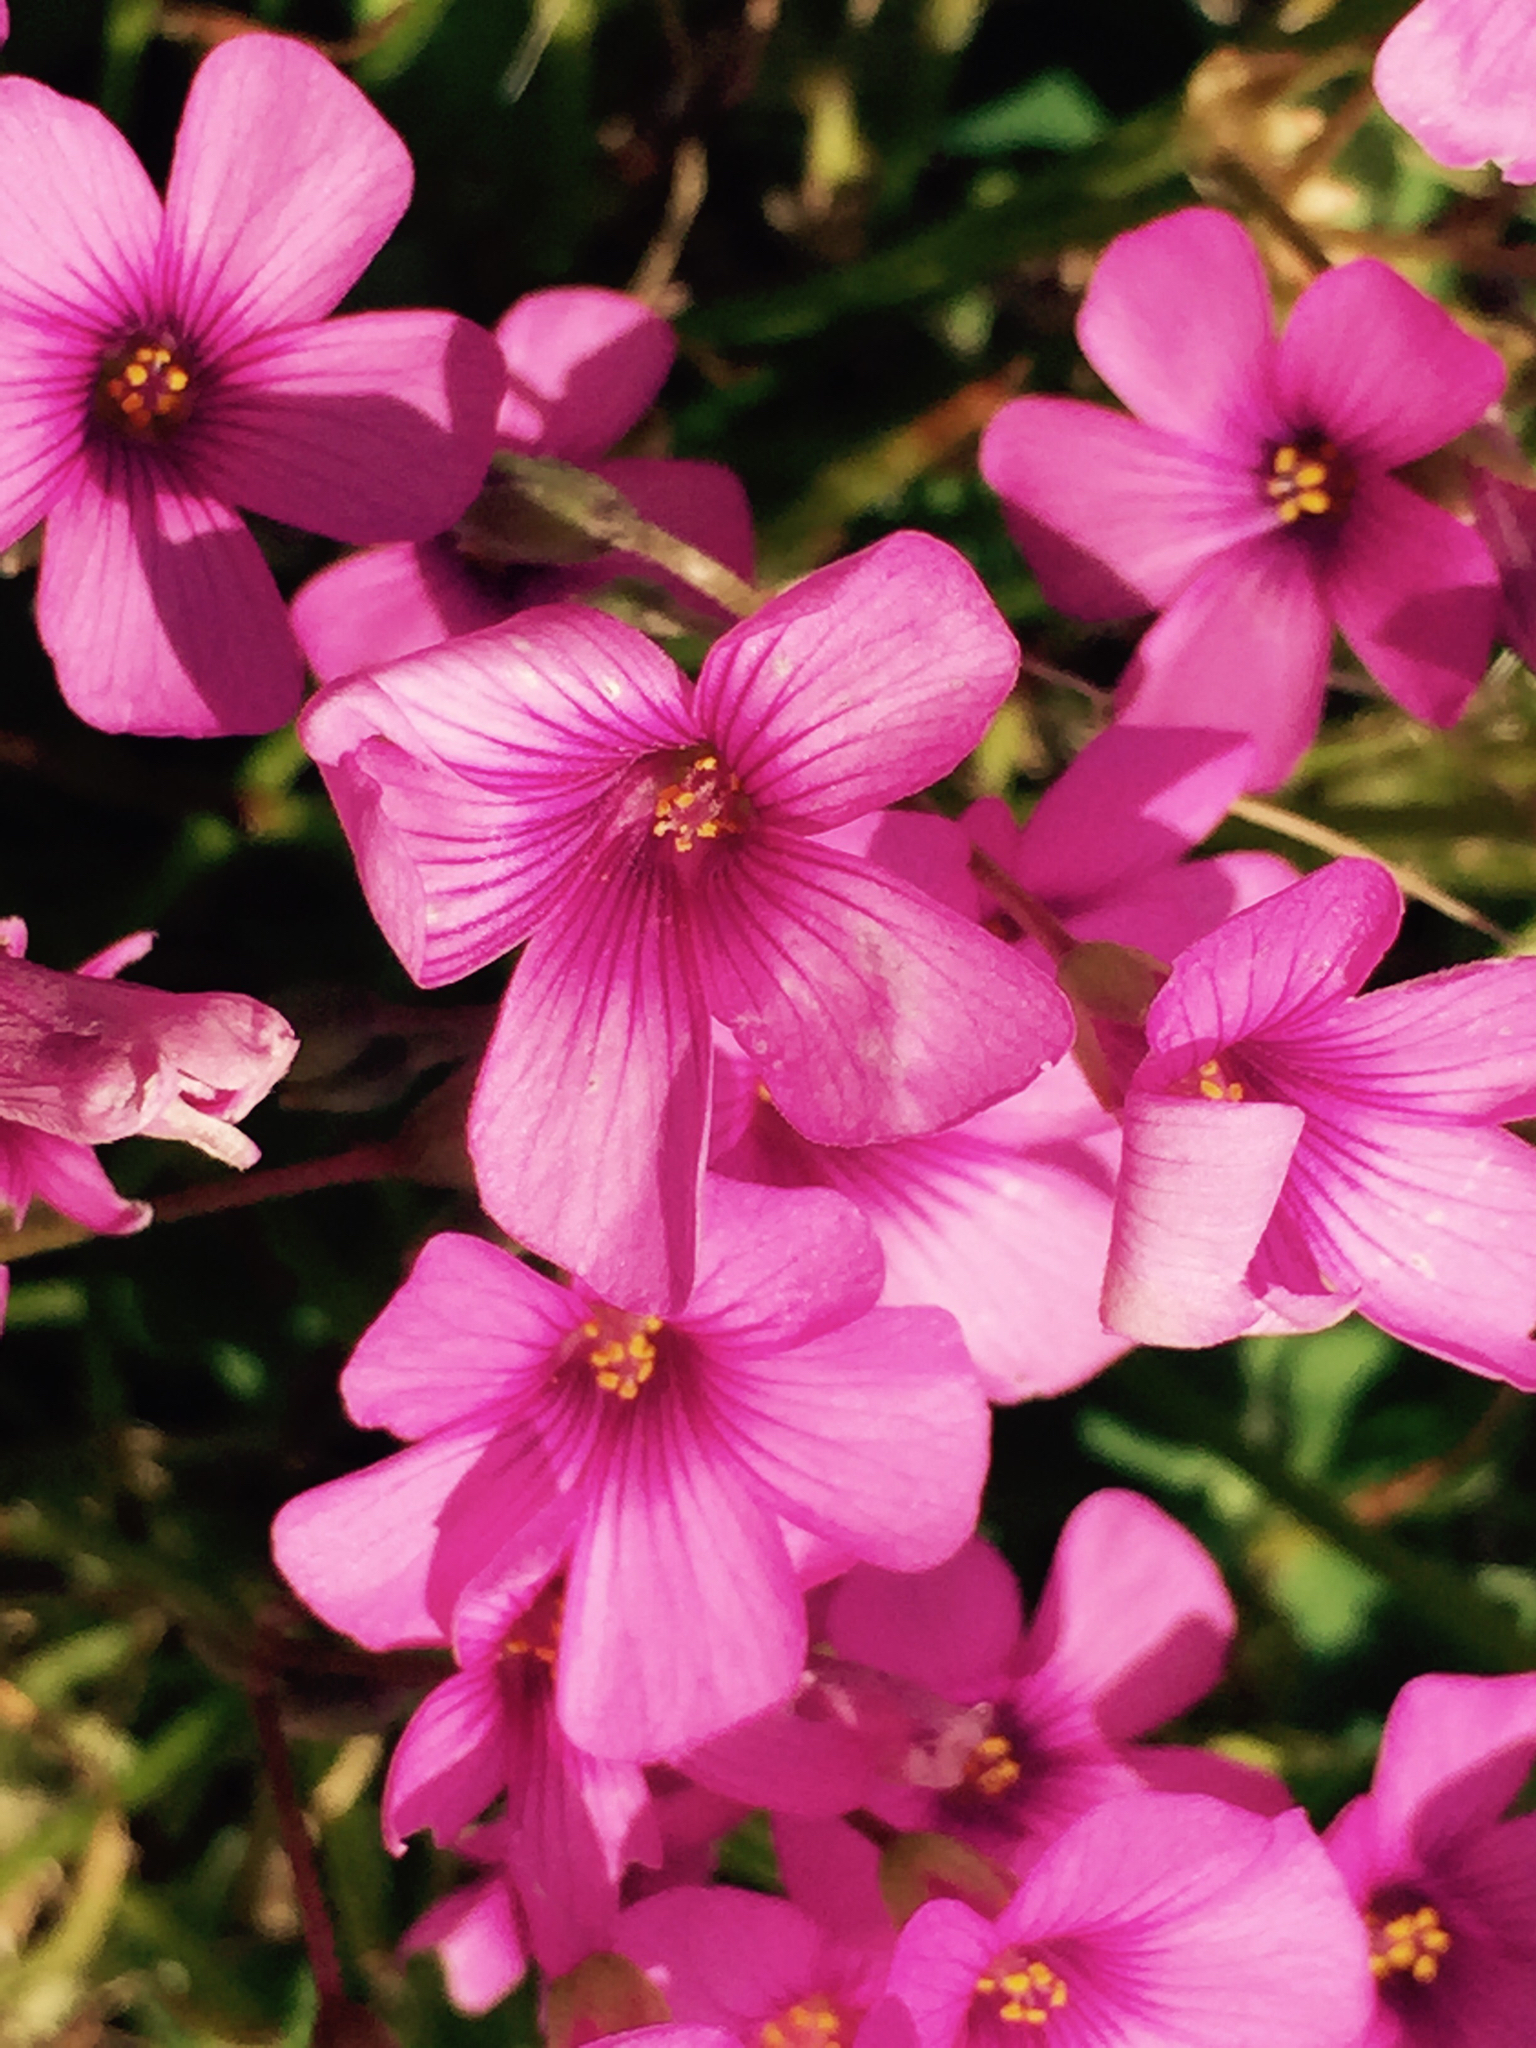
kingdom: Plantae
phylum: Tracheophyta
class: Magnoliopsida
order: Oxalidales
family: Oxalidaceae
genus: Oxalis
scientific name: Oxalis articulata
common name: Pink-sorrel
